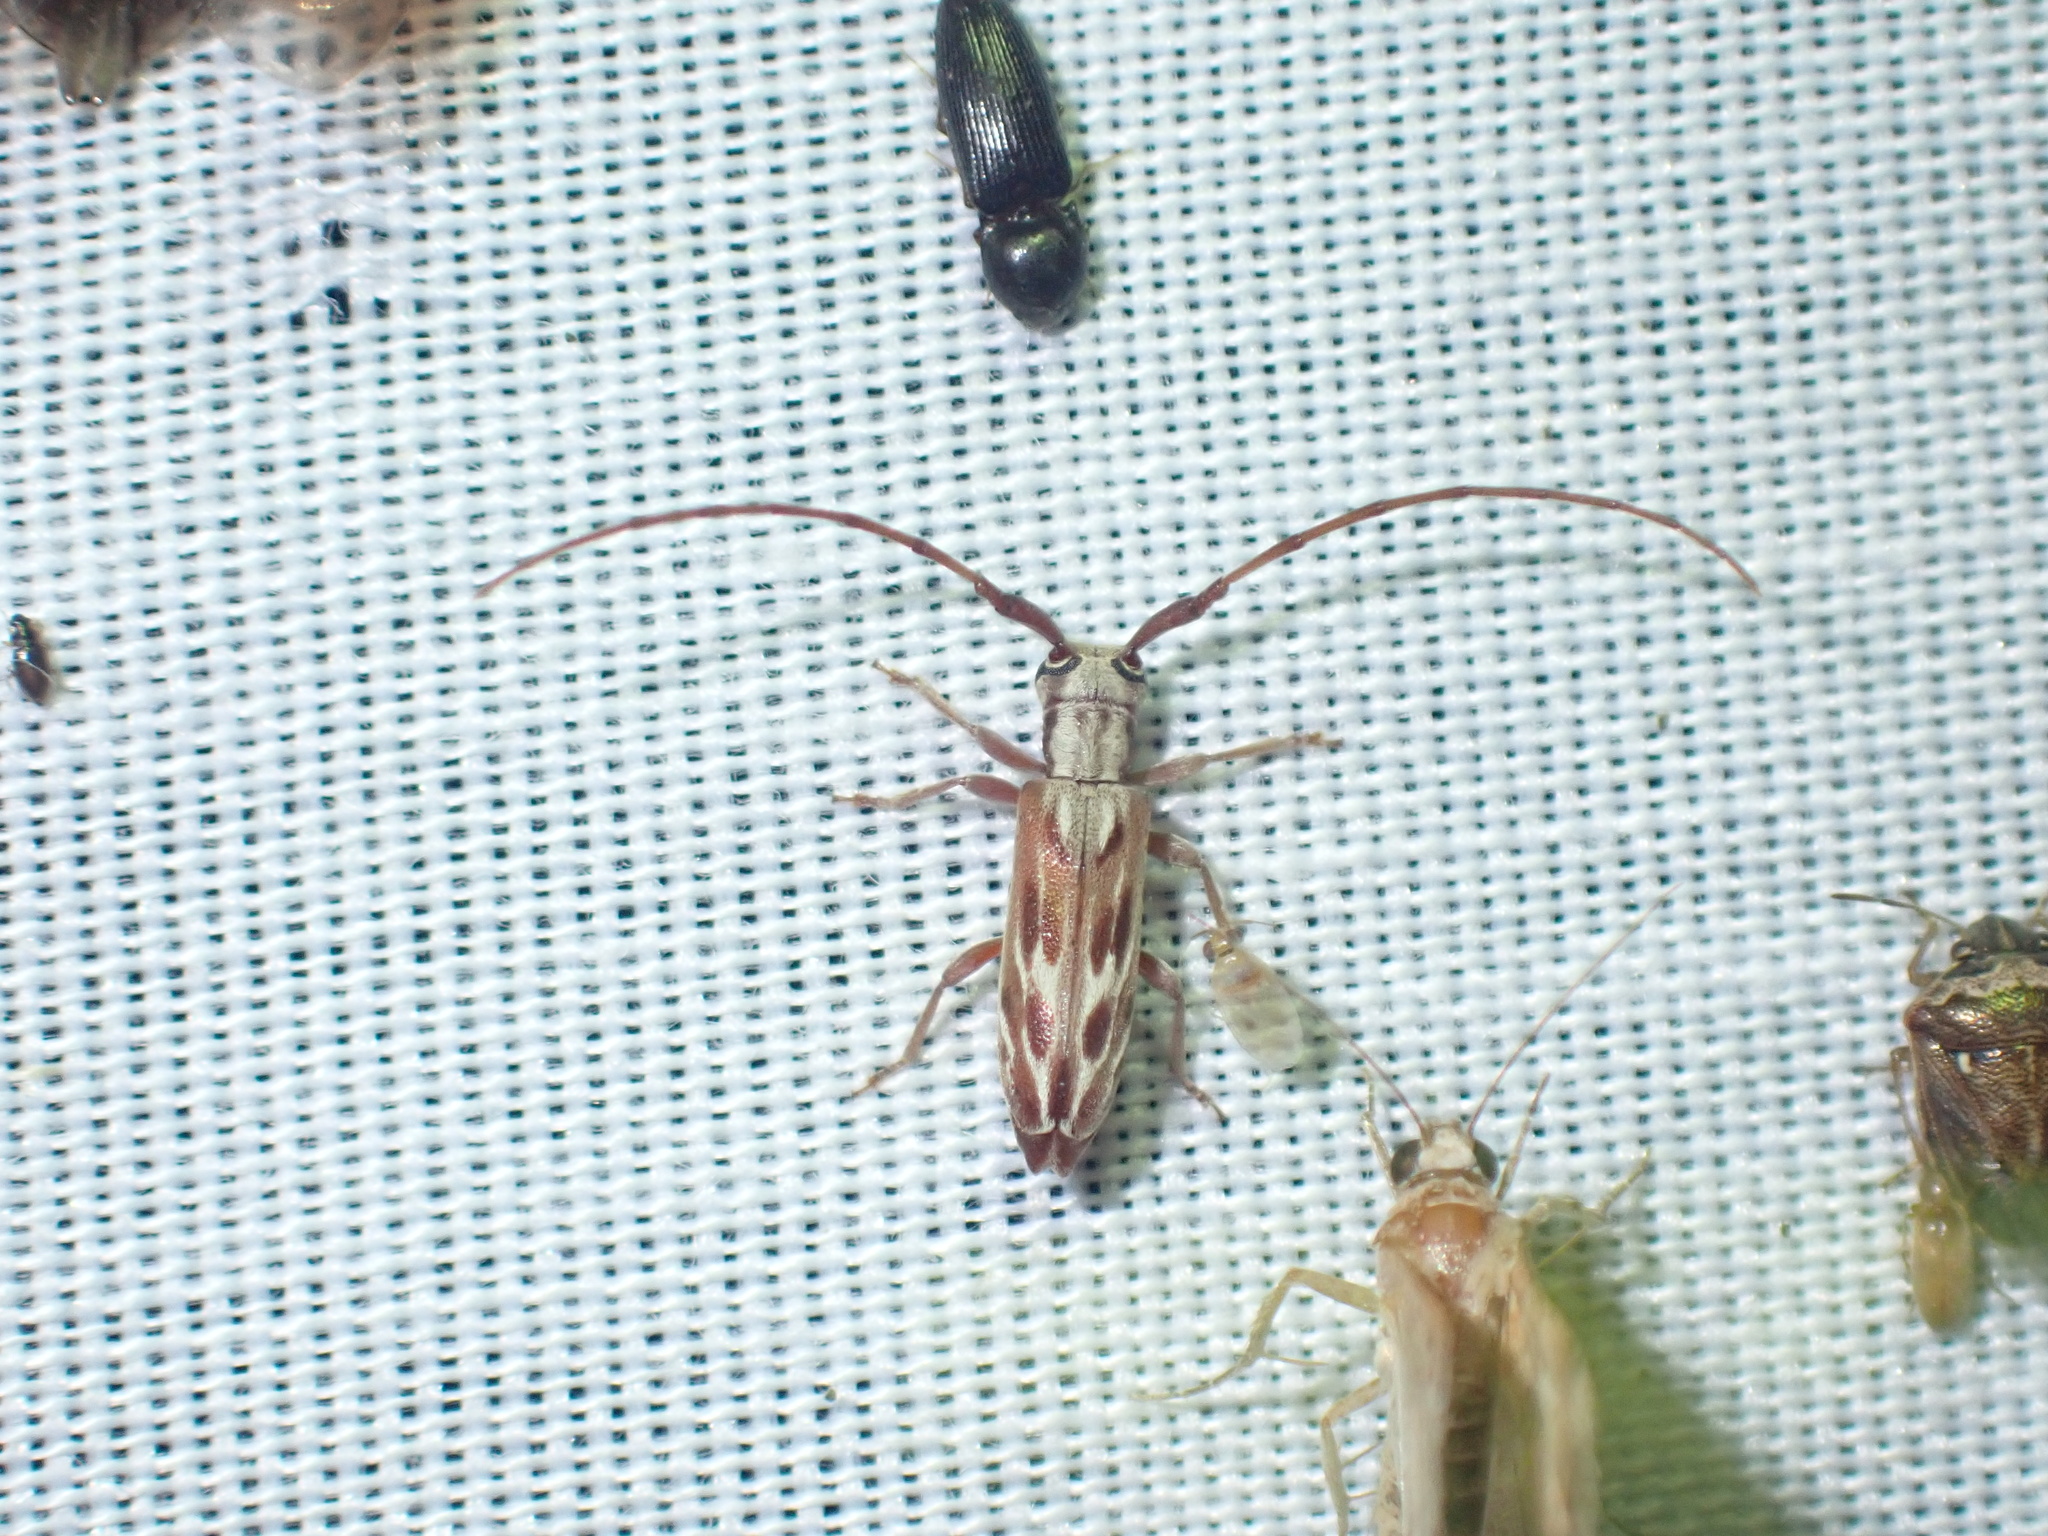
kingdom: Animalia
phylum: Arthropoda
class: Insecta
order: Coleoptera
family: Cerambycidae
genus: Eunidia
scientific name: Eunidia strigata
